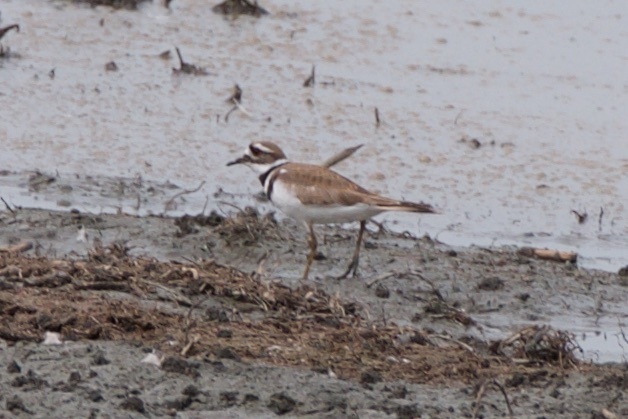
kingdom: Animalia
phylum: Chordata
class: Aves
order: Charadriiformes
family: Charadriidae
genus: Charadrius
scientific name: Charadrius vociferus
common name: Killdeer
